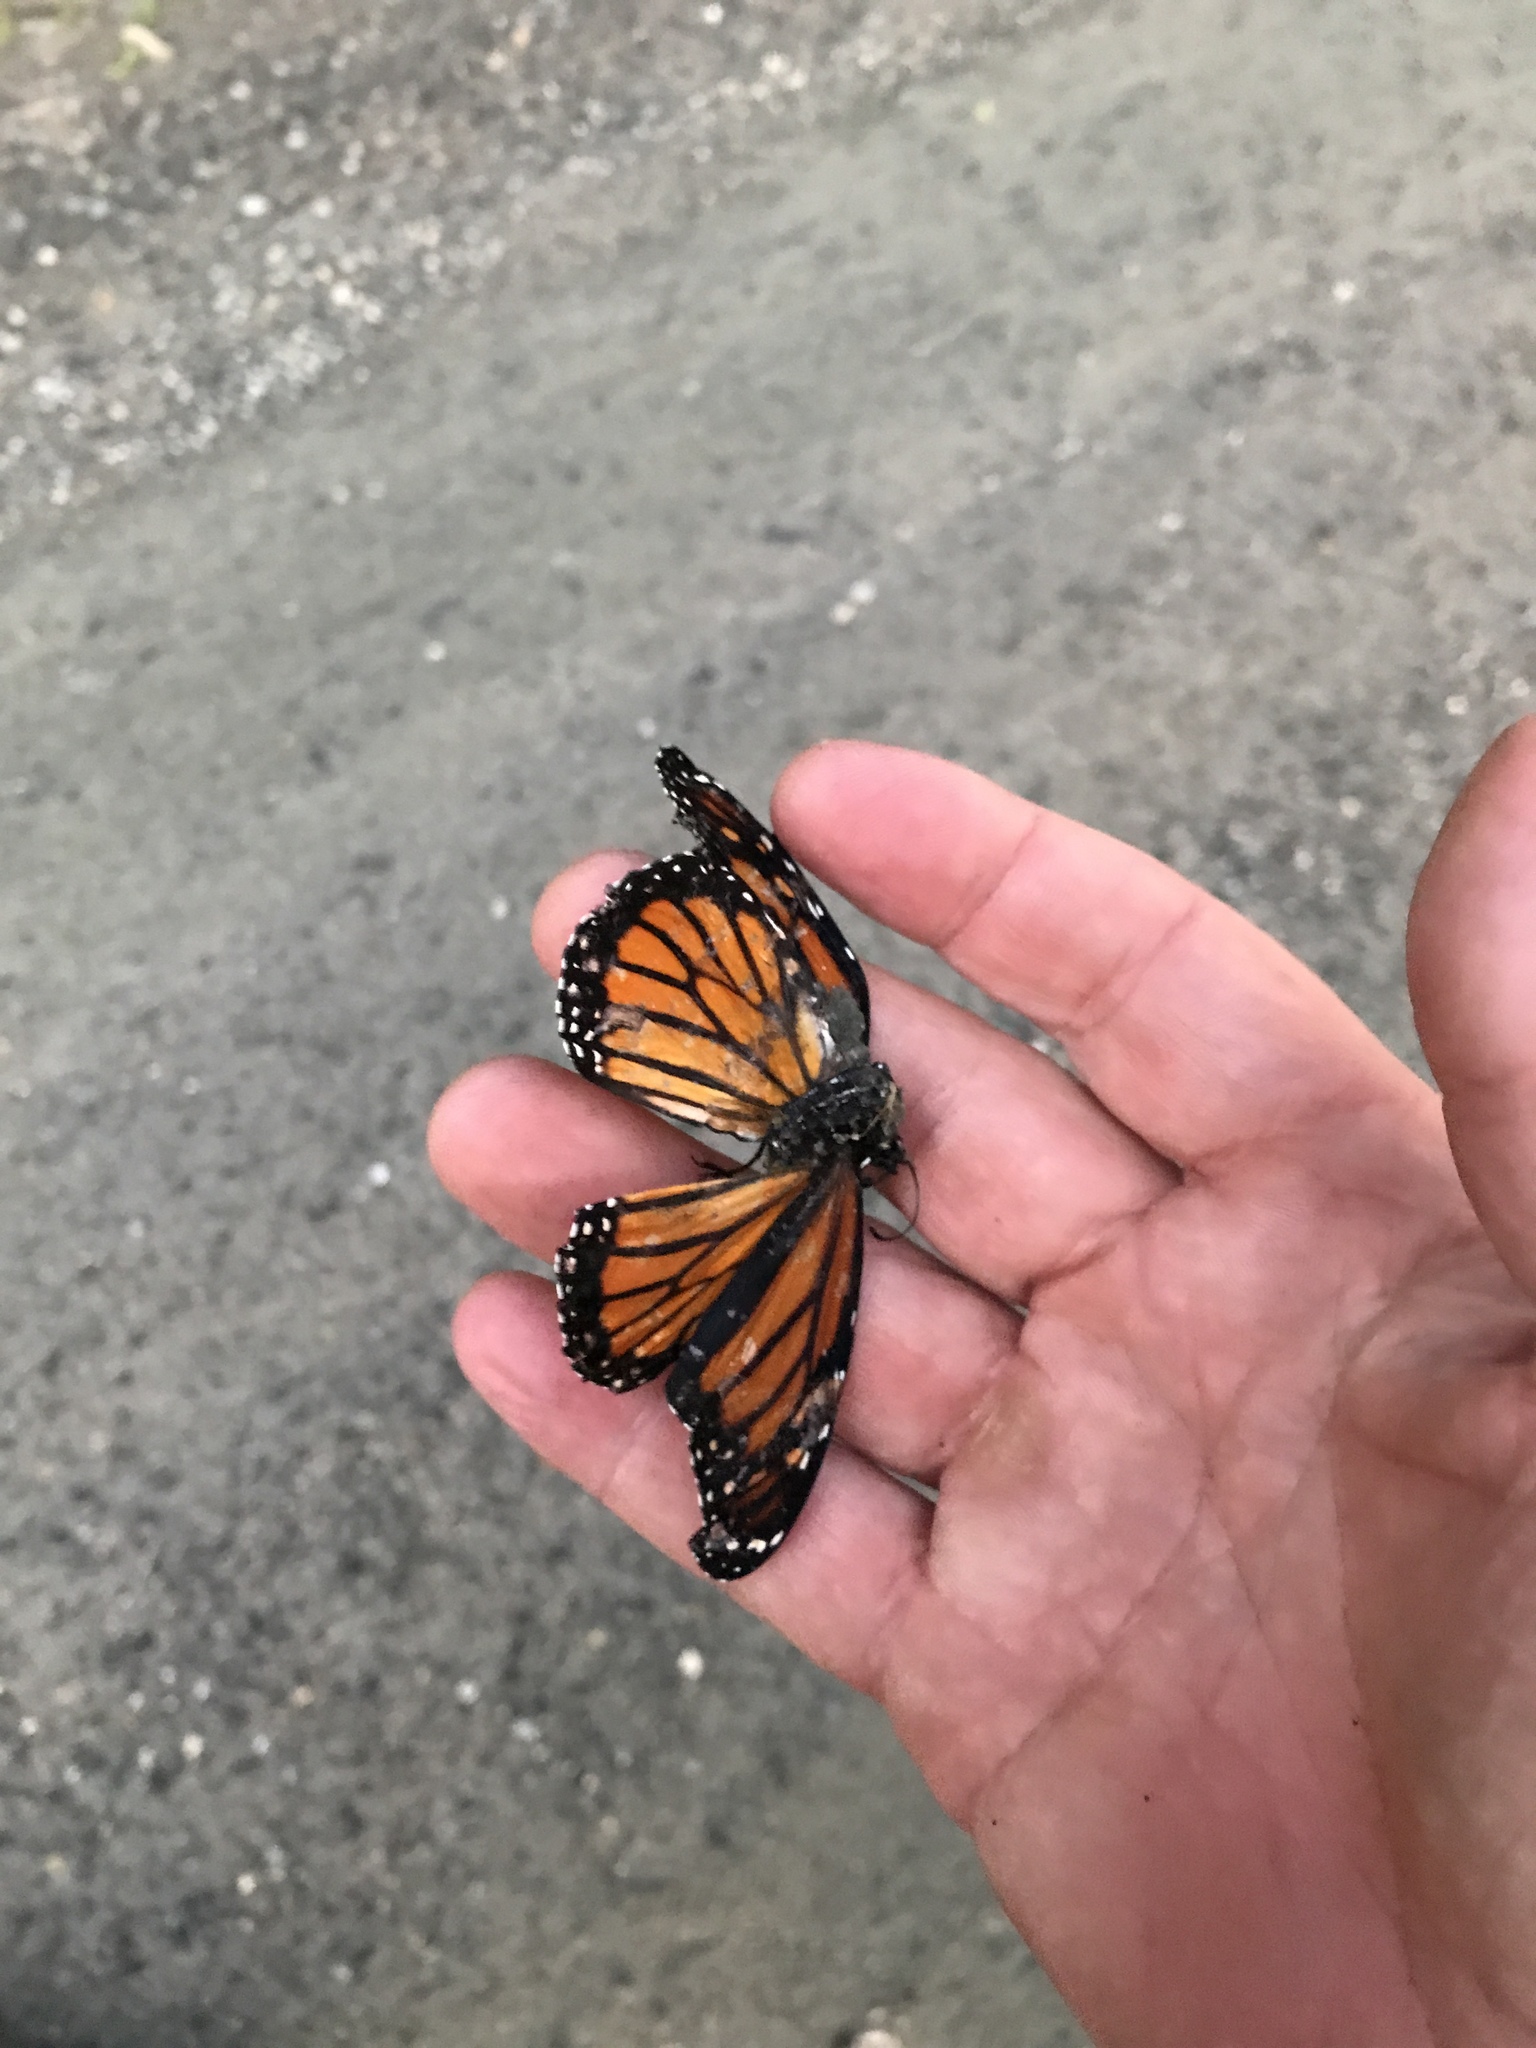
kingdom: Animalia
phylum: Arthropoda
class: Insecta
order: Lepidoptera
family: Nymphalidae
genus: Danaus
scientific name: Danaus plexippus
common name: Monarch
